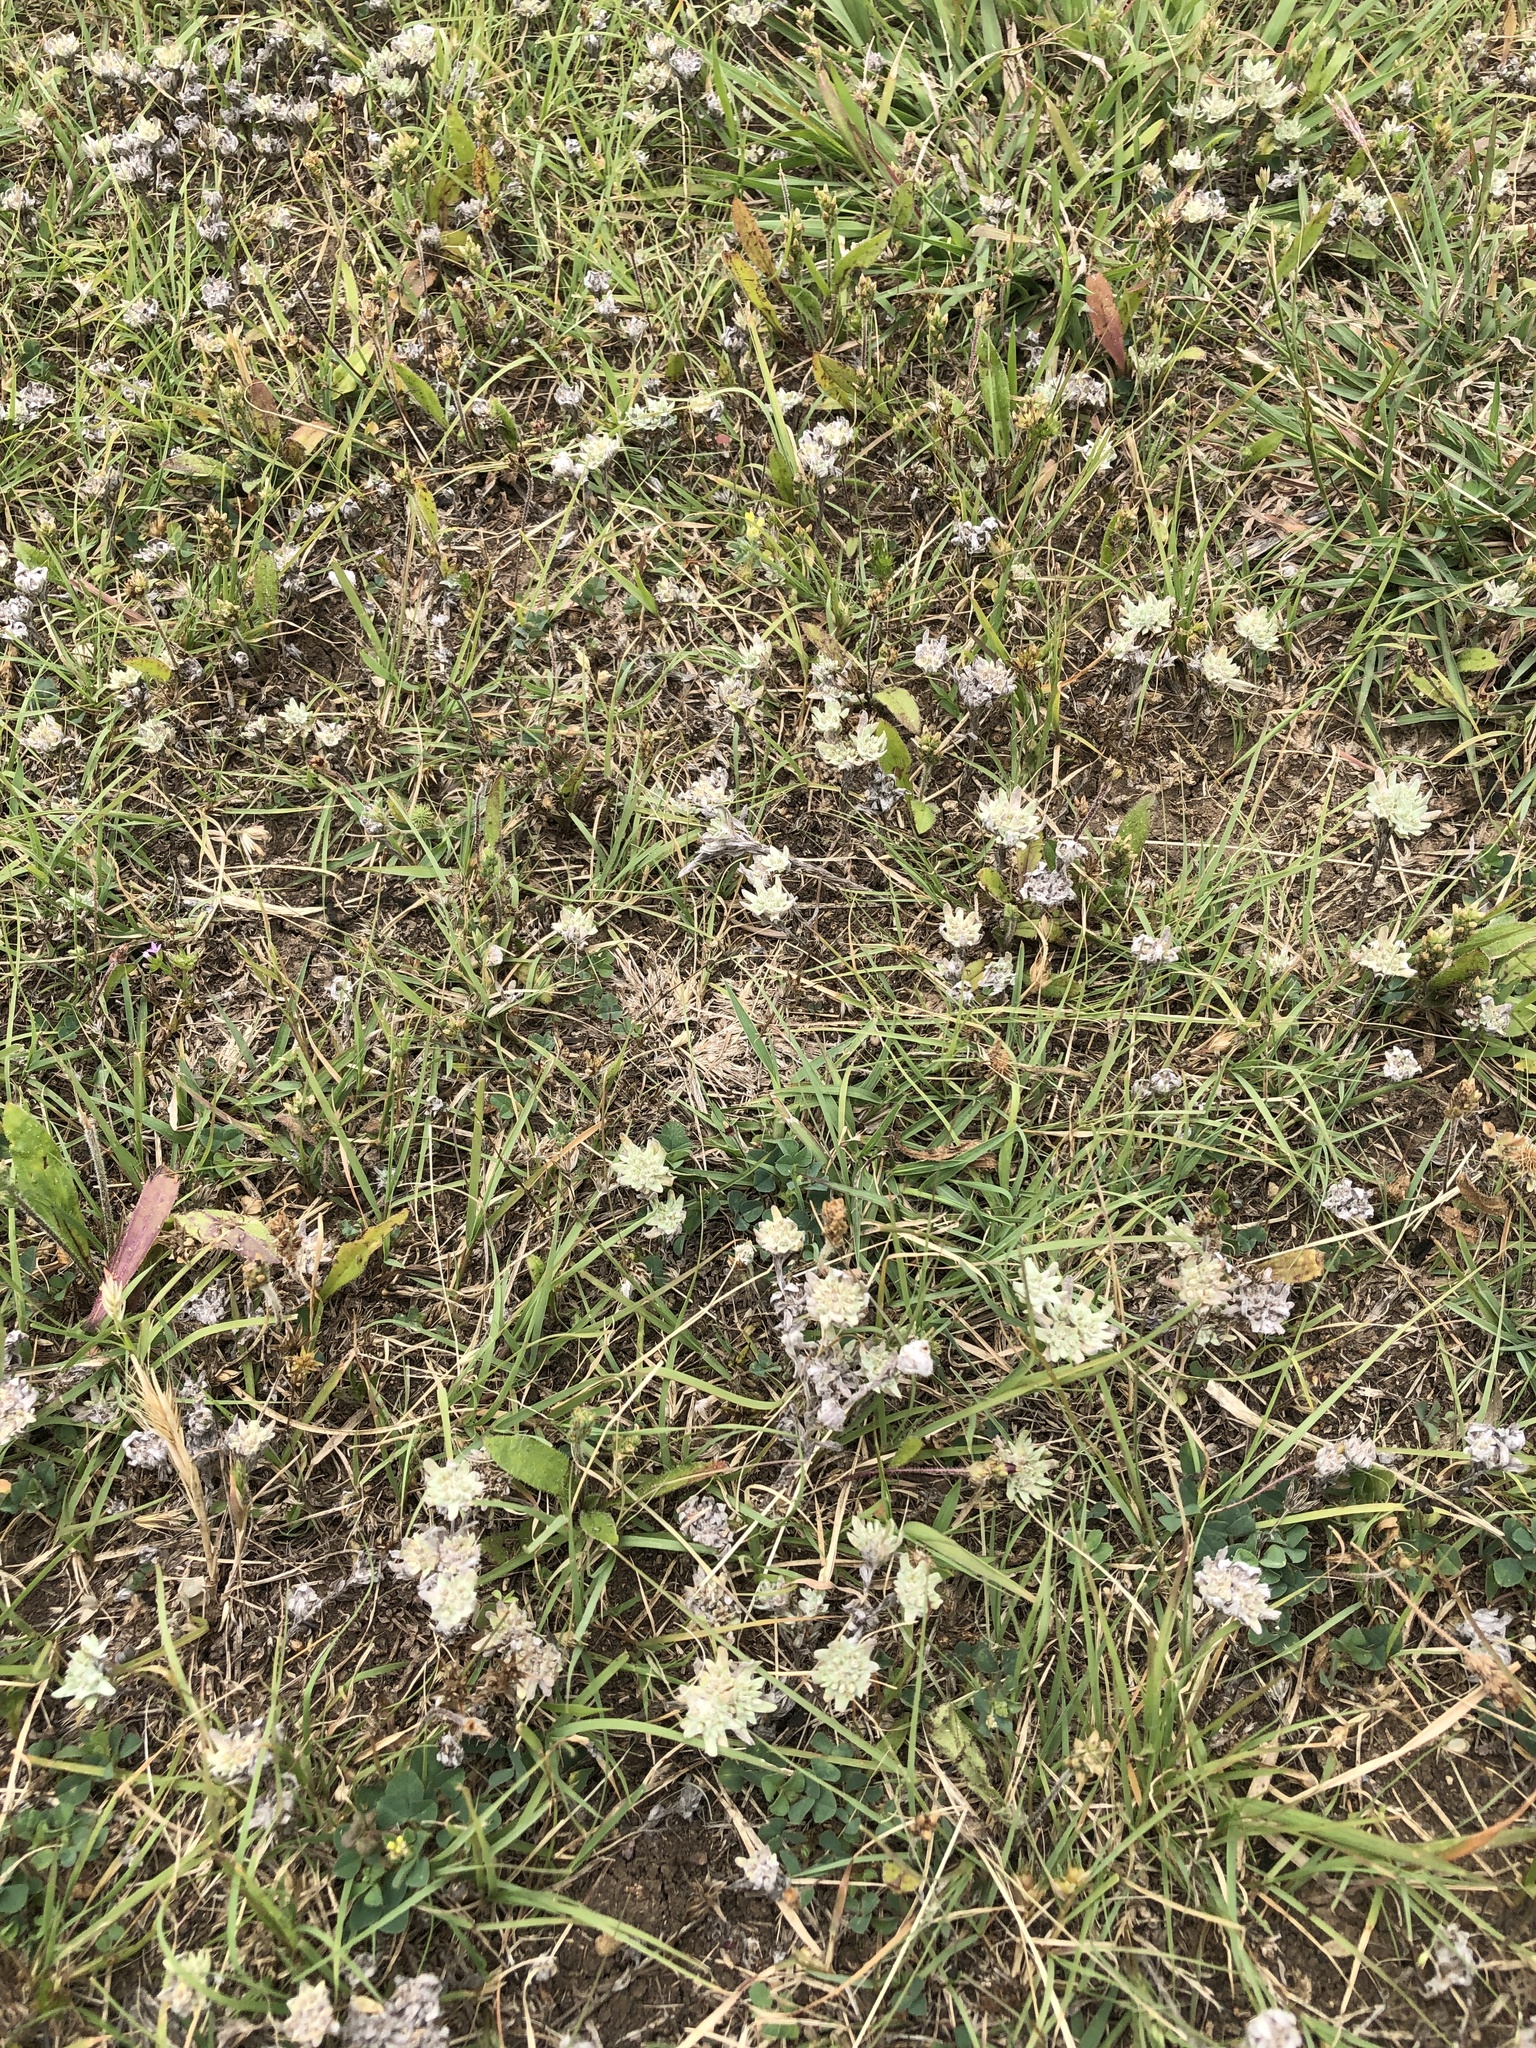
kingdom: Plantae
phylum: Tracheophyta
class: Magnoliopsida
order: Asterales
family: Asteraceae
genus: Diaperia
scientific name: Diaperia prolifera
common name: Big-head rabbit-tobacco
